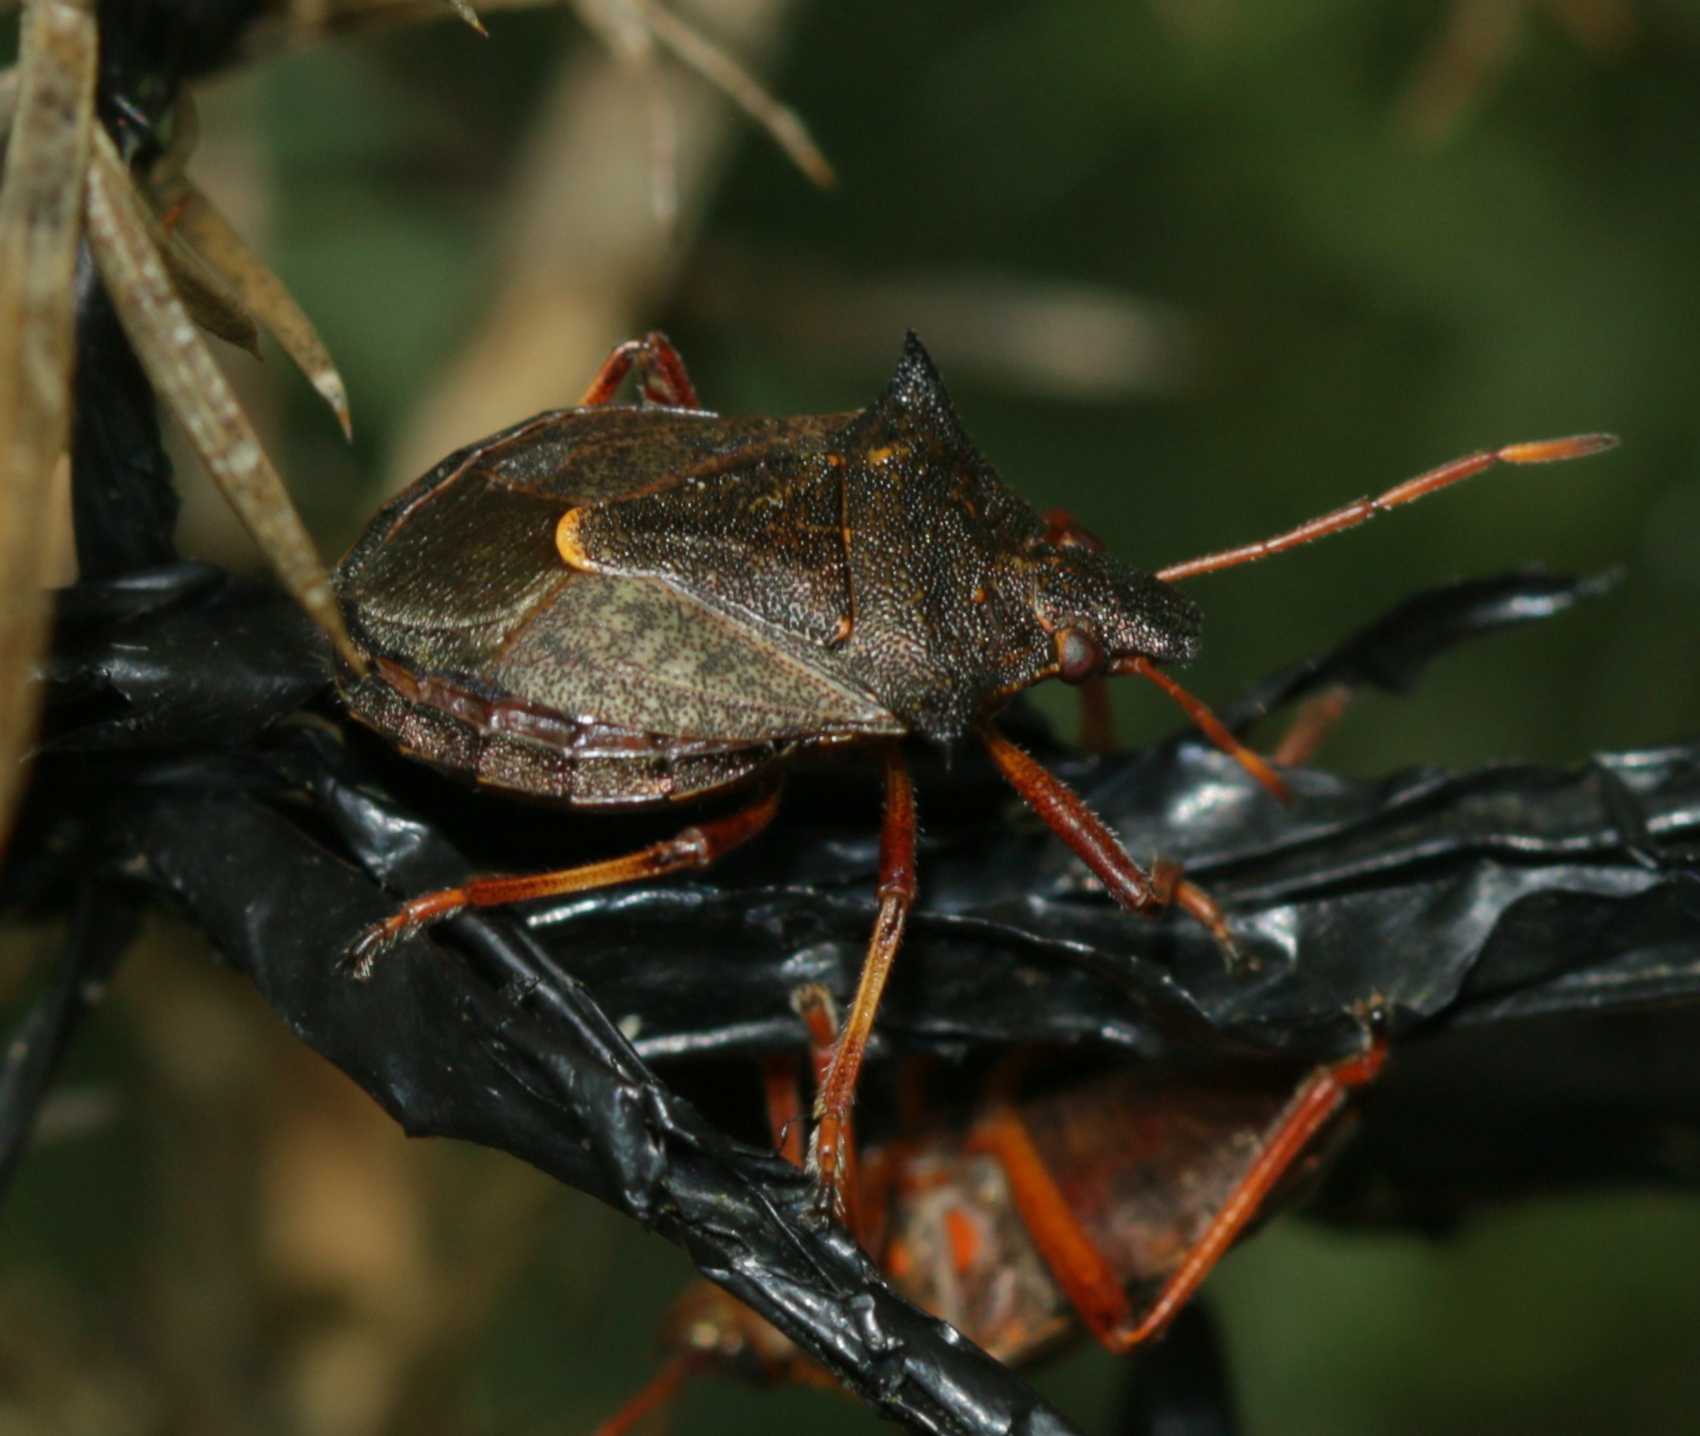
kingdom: Animalia
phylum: Arthropoda
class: Insecta
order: Hemiptera
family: Pentatomidae
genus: Picromerus
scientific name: Picromerus bidens
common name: Spiked shieldbug
